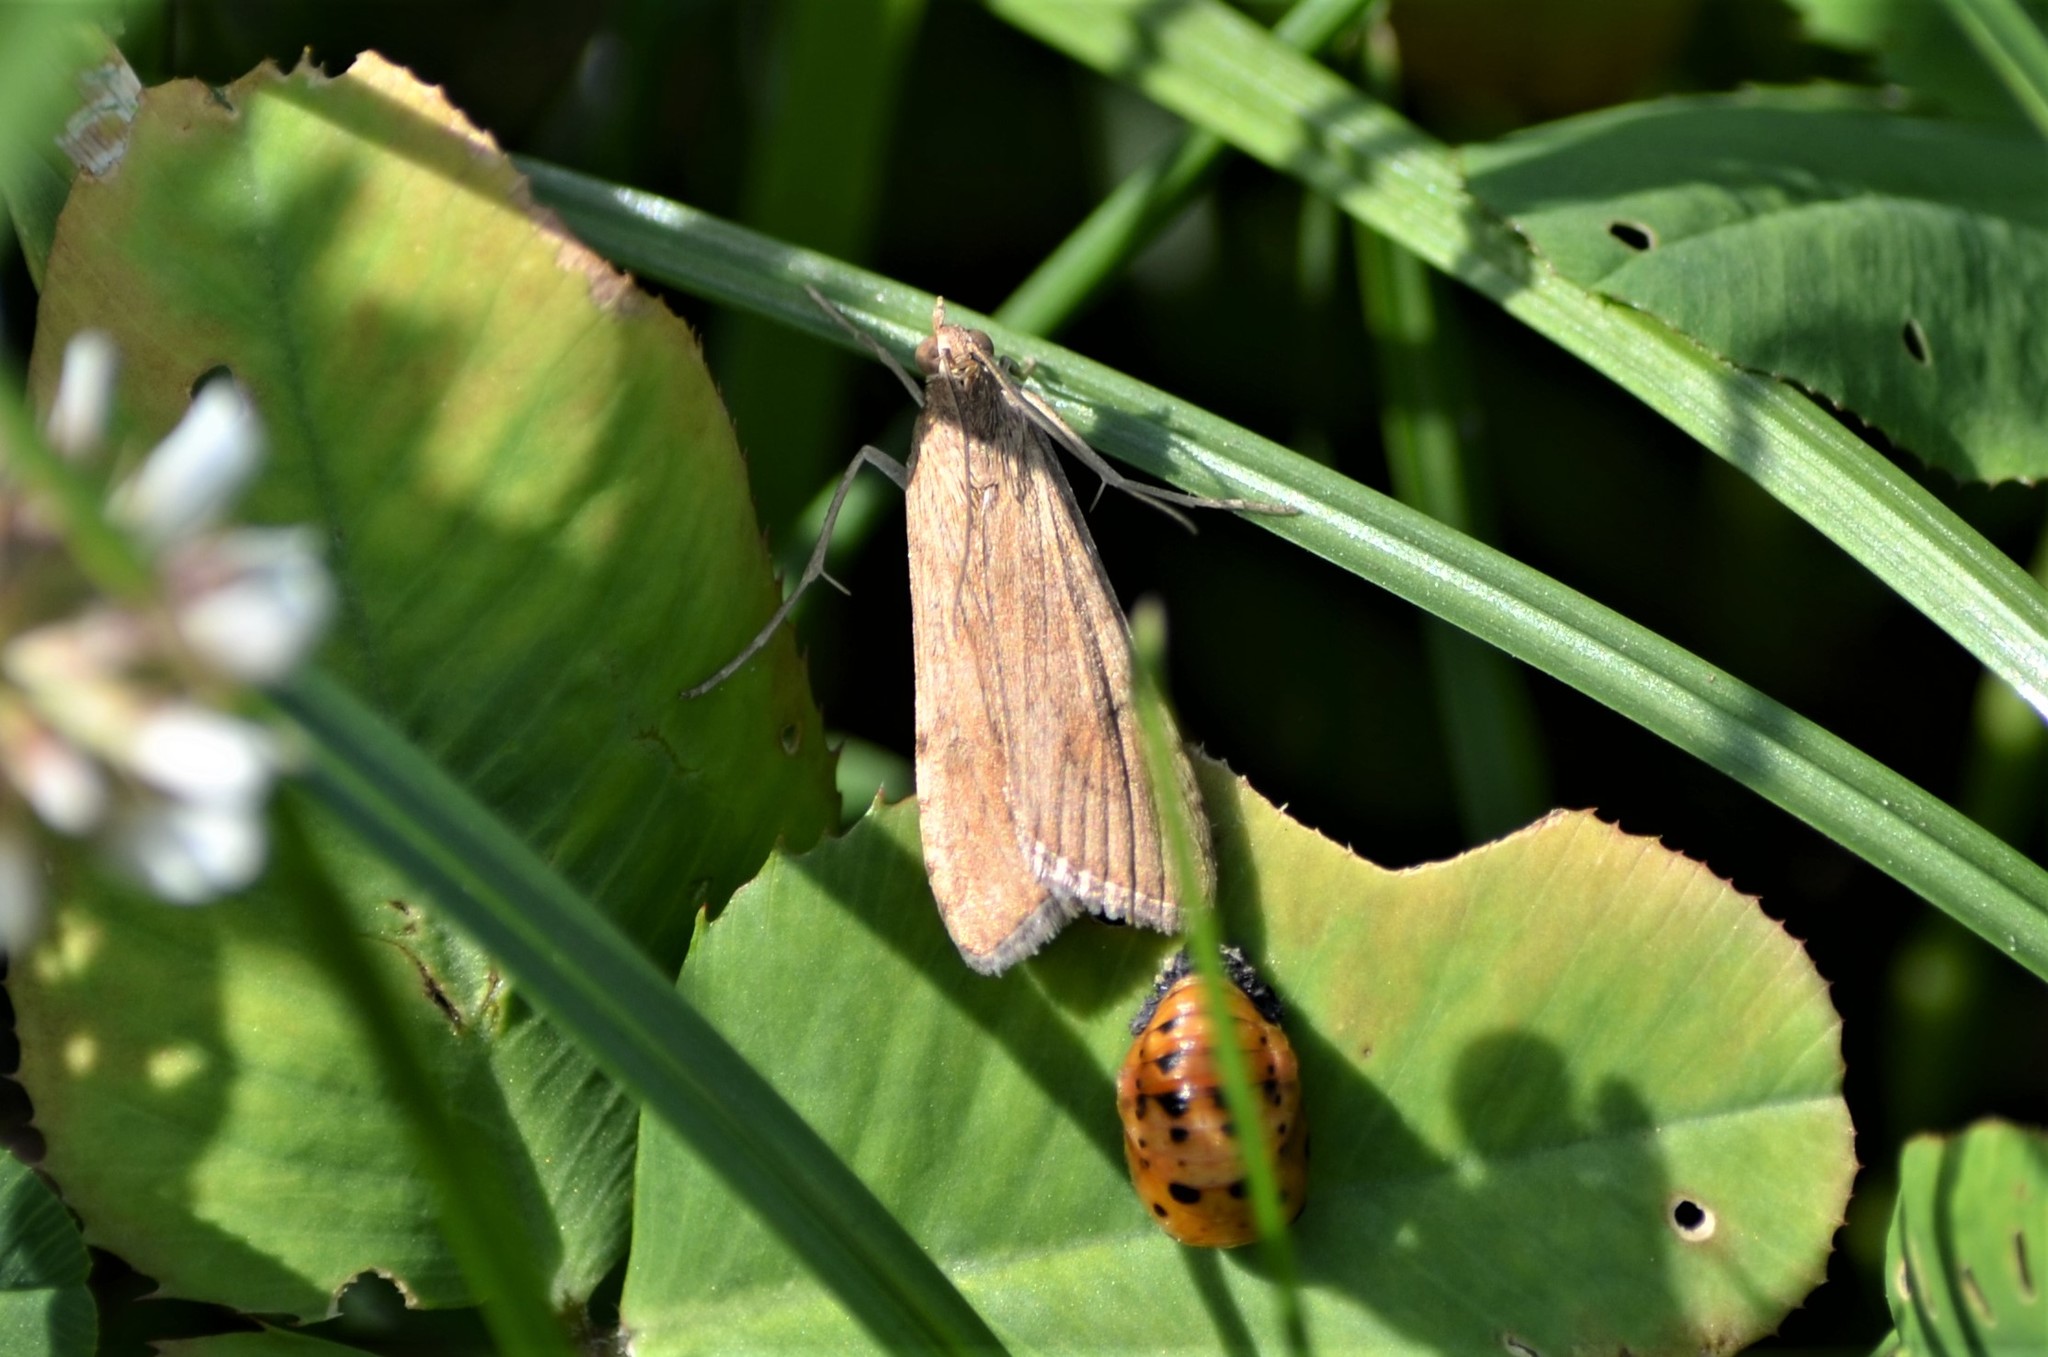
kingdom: Animalia
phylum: Arthropoda
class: Insecta
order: Lepidoptera
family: Crambidae
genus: Nomophila
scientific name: Nomophila noctuella
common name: Rush veneer
